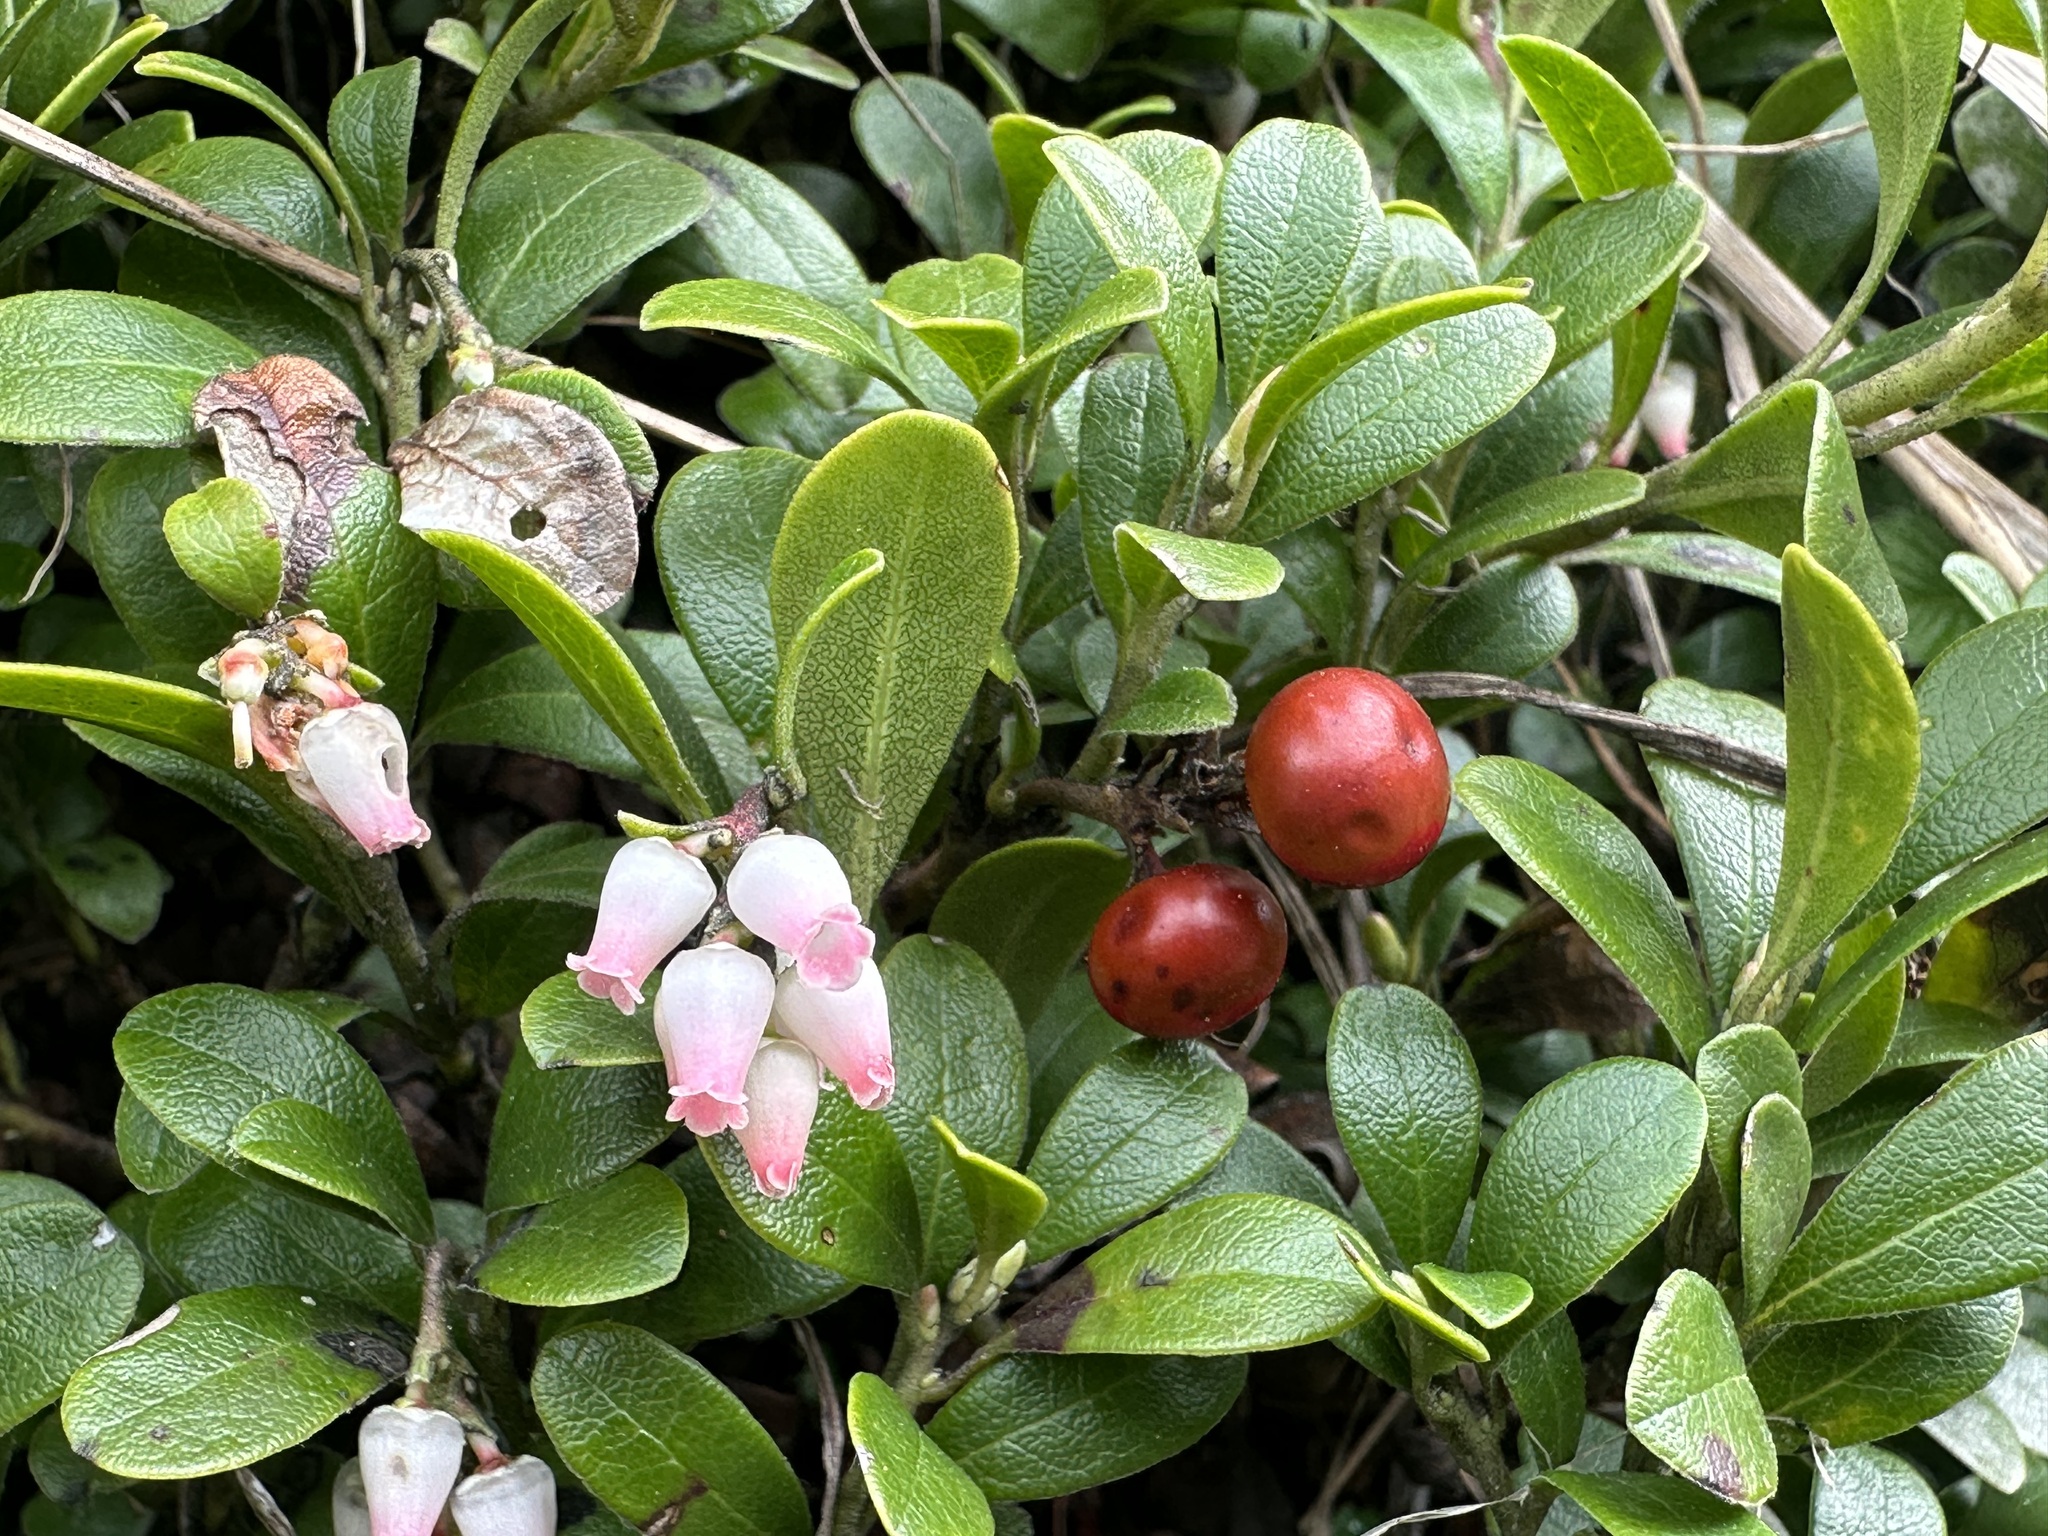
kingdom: Plantae
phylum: Tracheophyta
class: Magnoliopsida
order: Ericales
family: Ericaceae
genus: Arctostaphylos
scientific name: Arctostaphylos uva-ursi
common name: Bearberry
